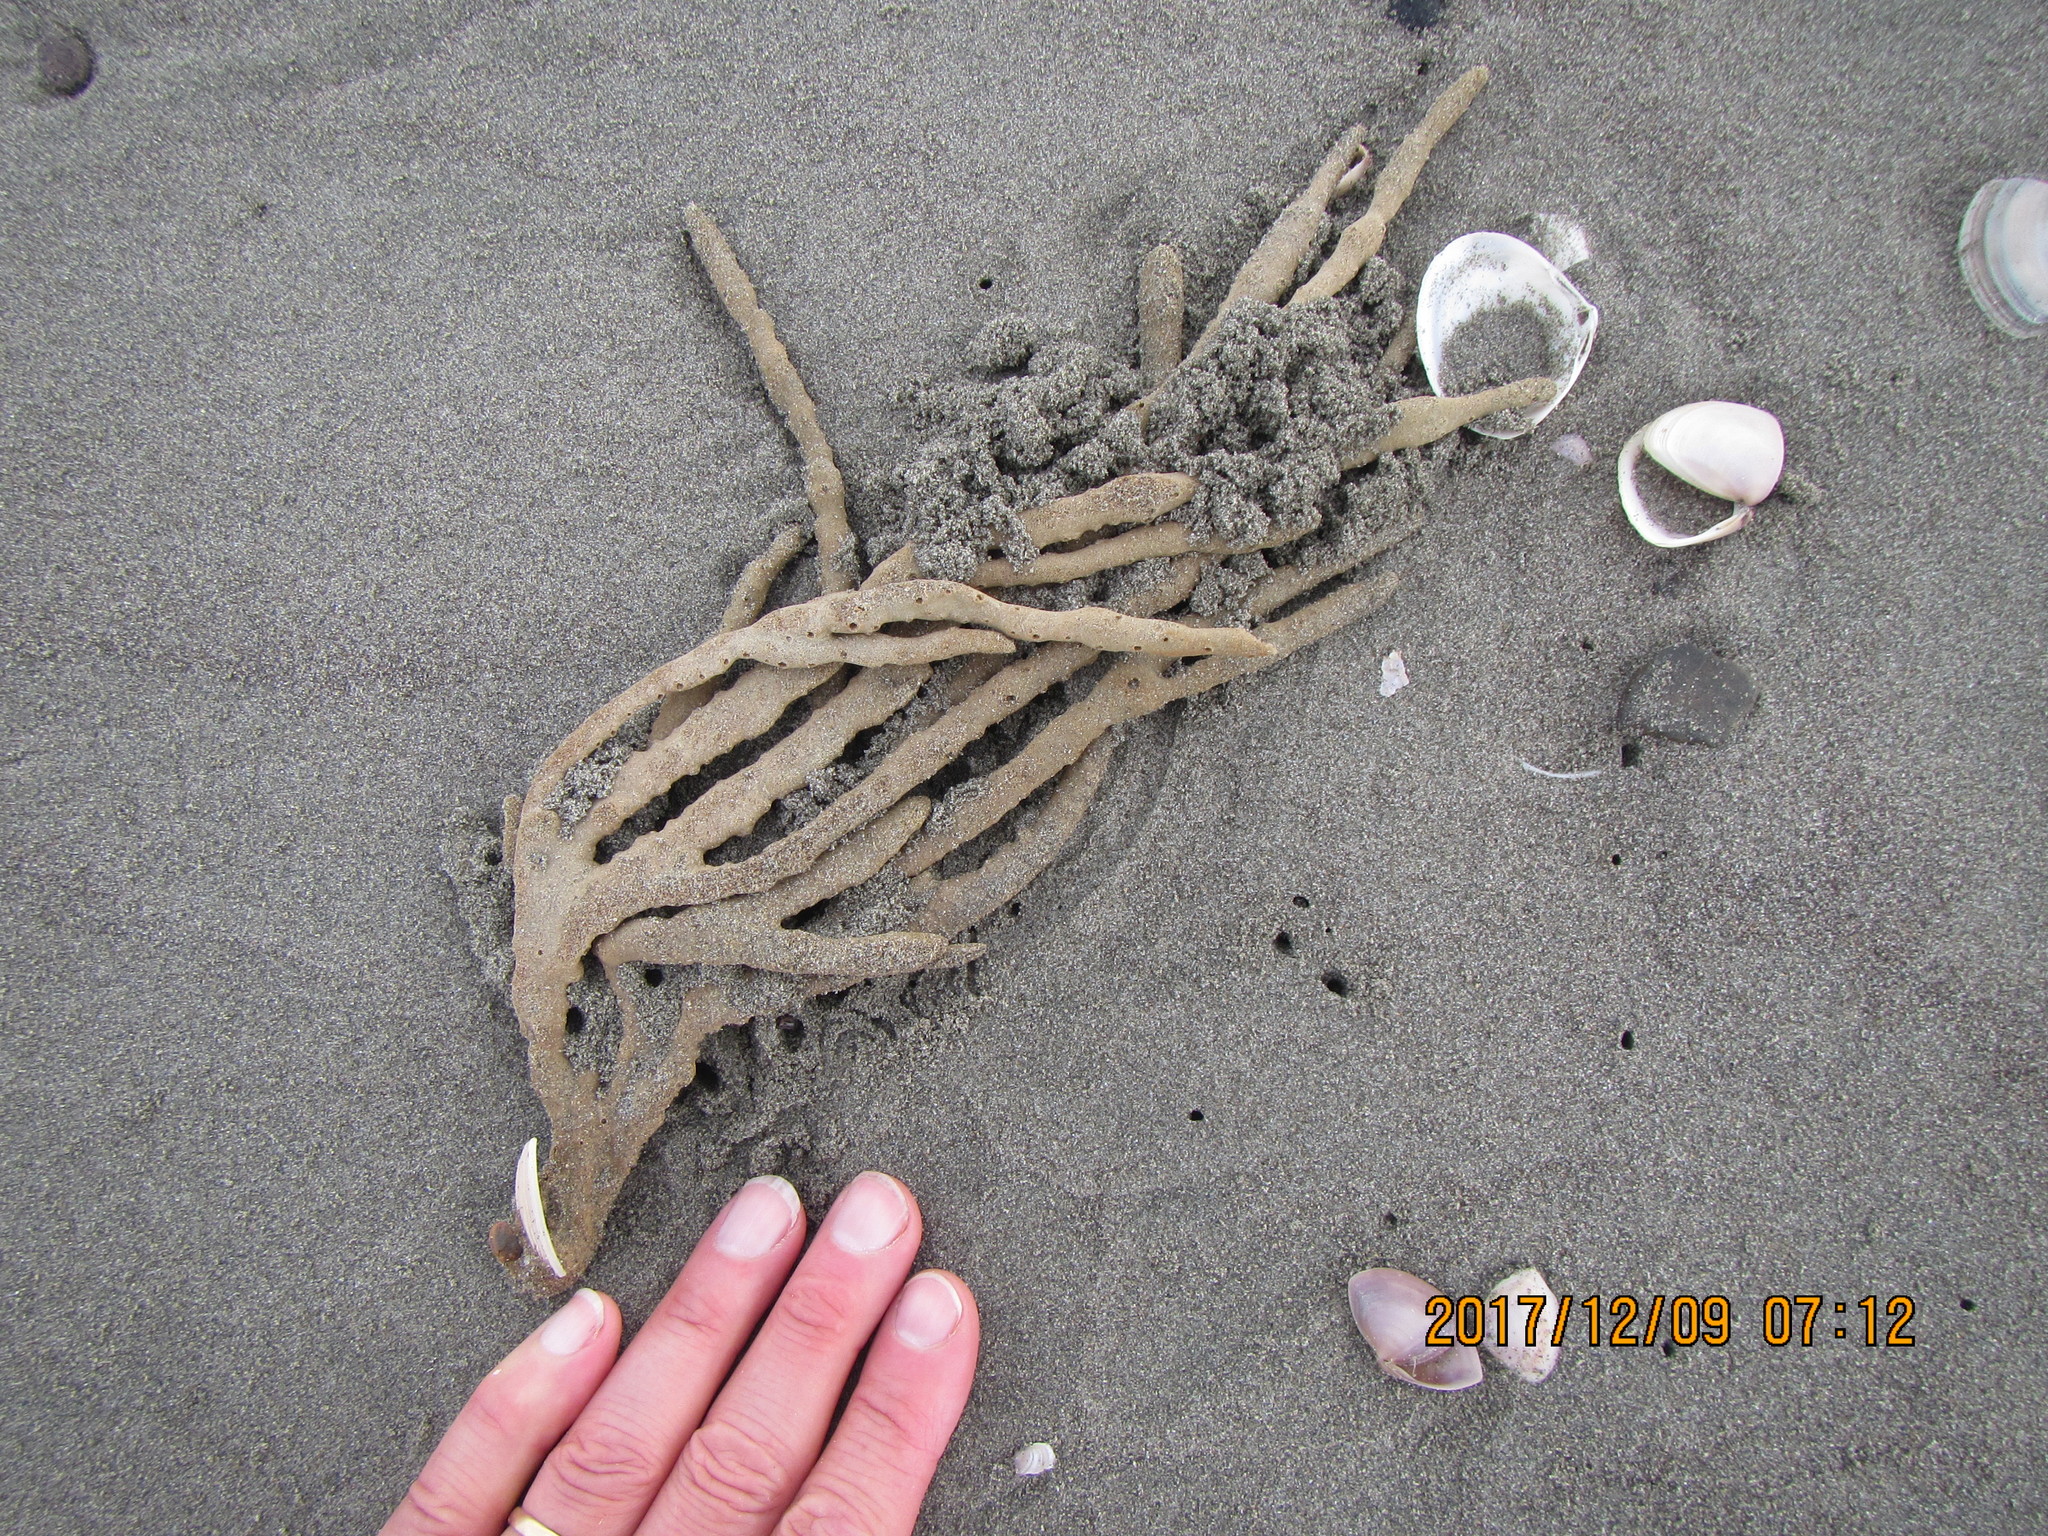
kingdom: Animalia
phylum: Porifera
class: Demospongiae
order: Haplosclerida
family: Callyspongiidae
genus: Callyspongia
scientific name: Callyspongia nuda
